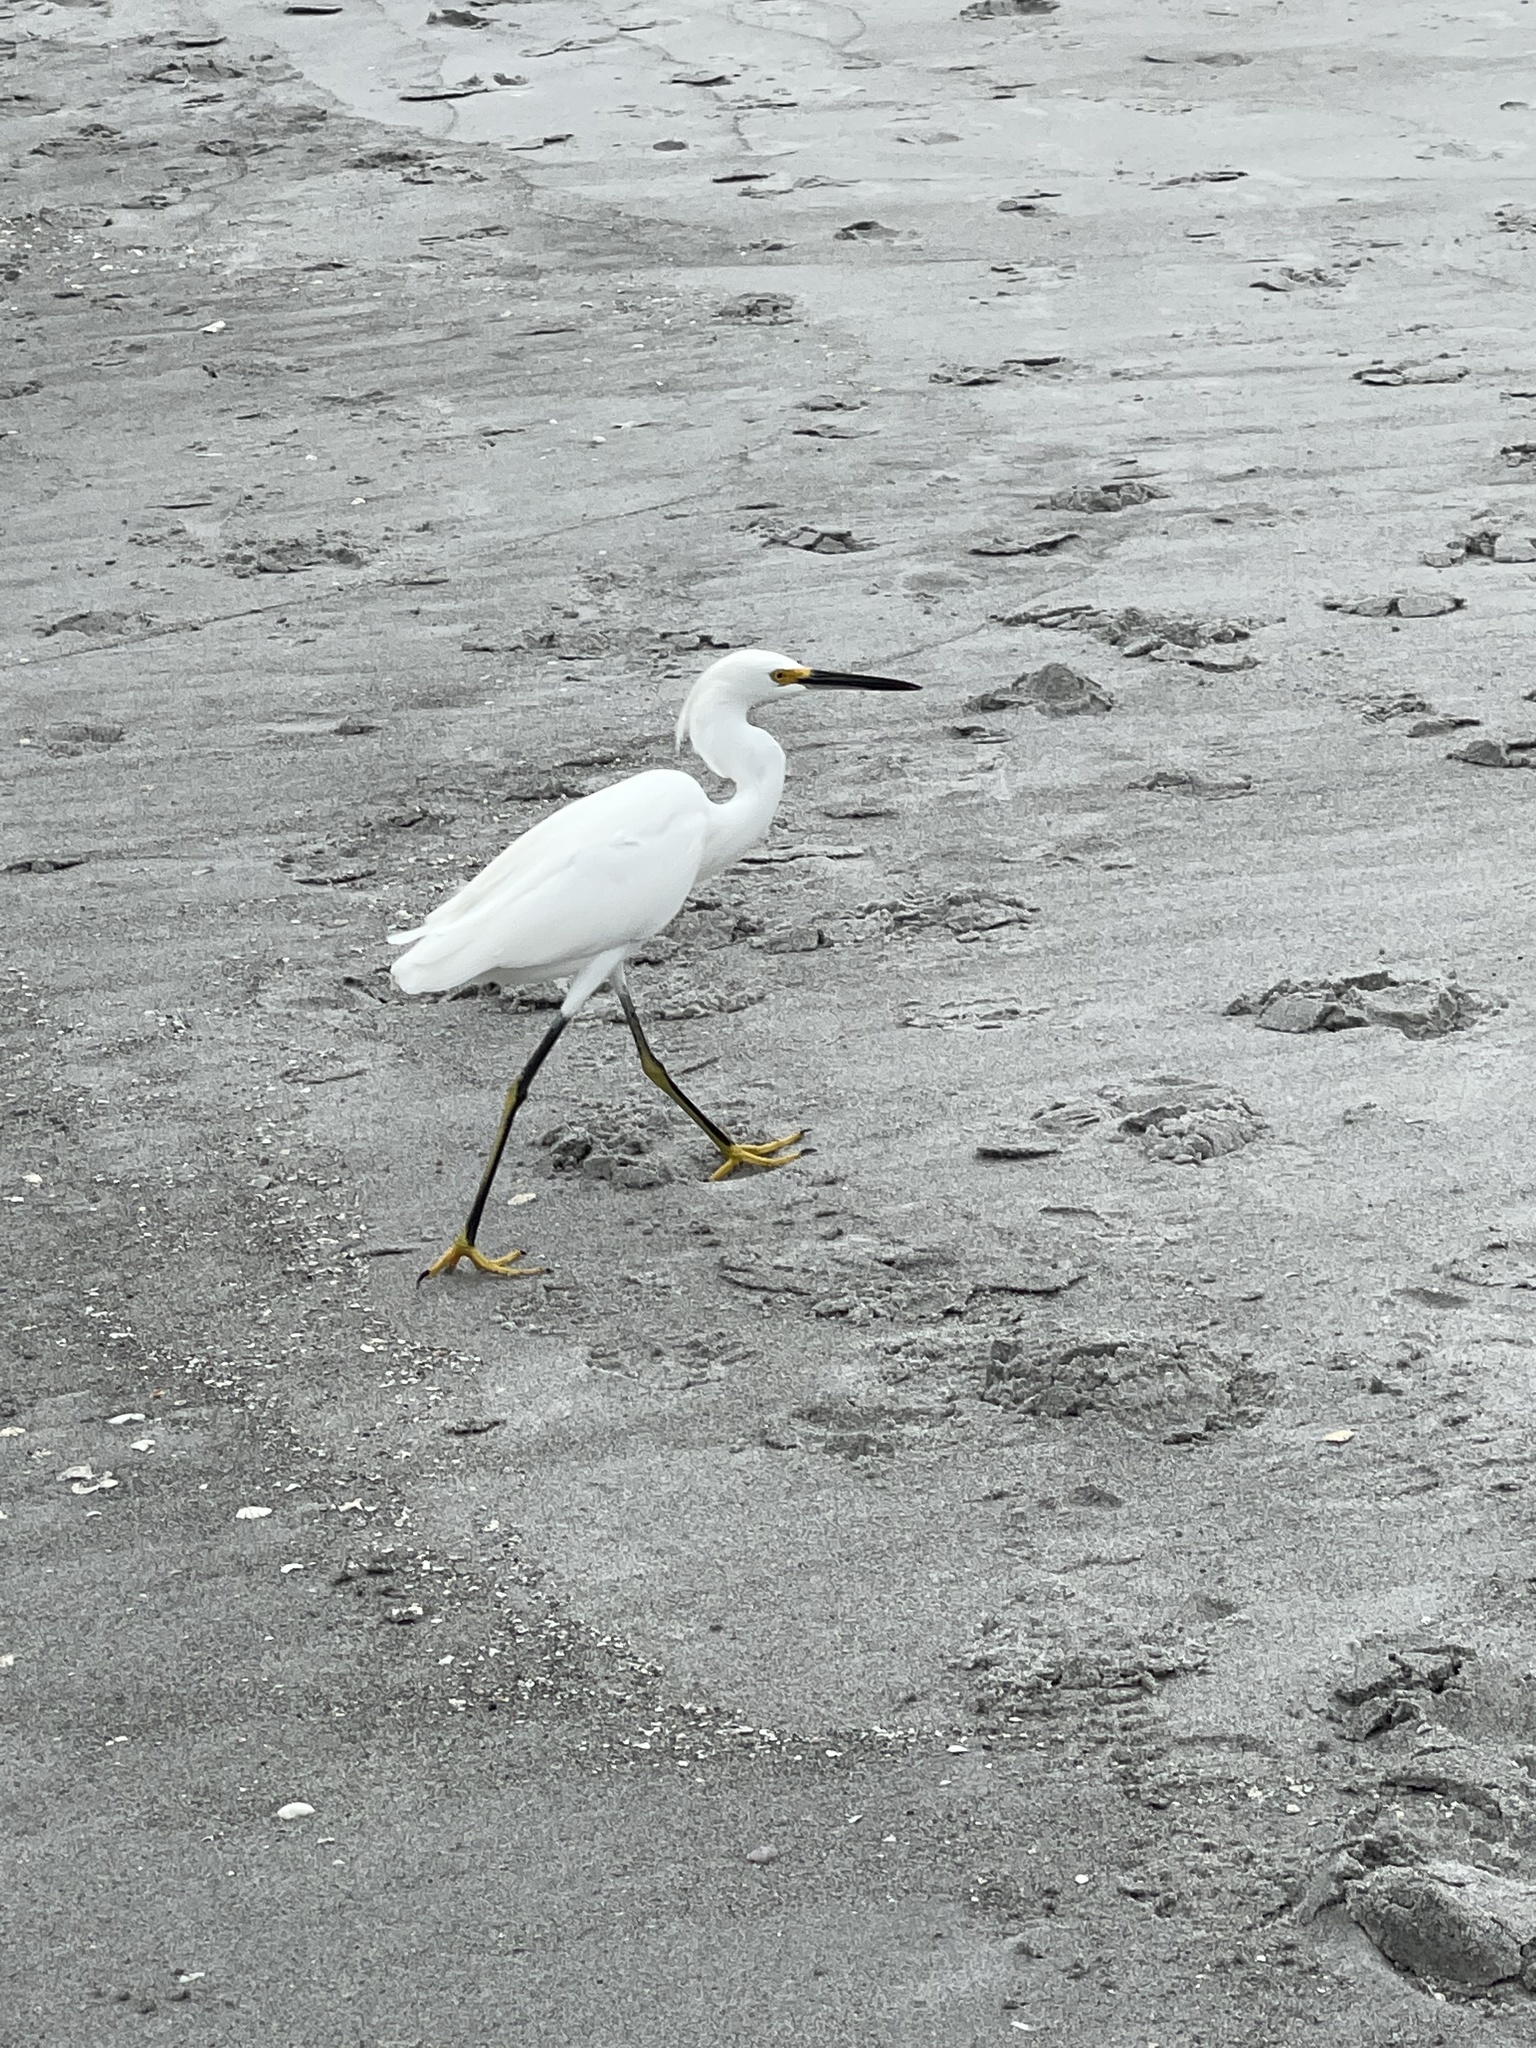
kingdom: Animalia
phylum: Chordata
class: Aves
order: Pelecaniformes
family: Ardeidae
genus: Egretta
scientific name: Egretta thula
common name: Snowy egret
